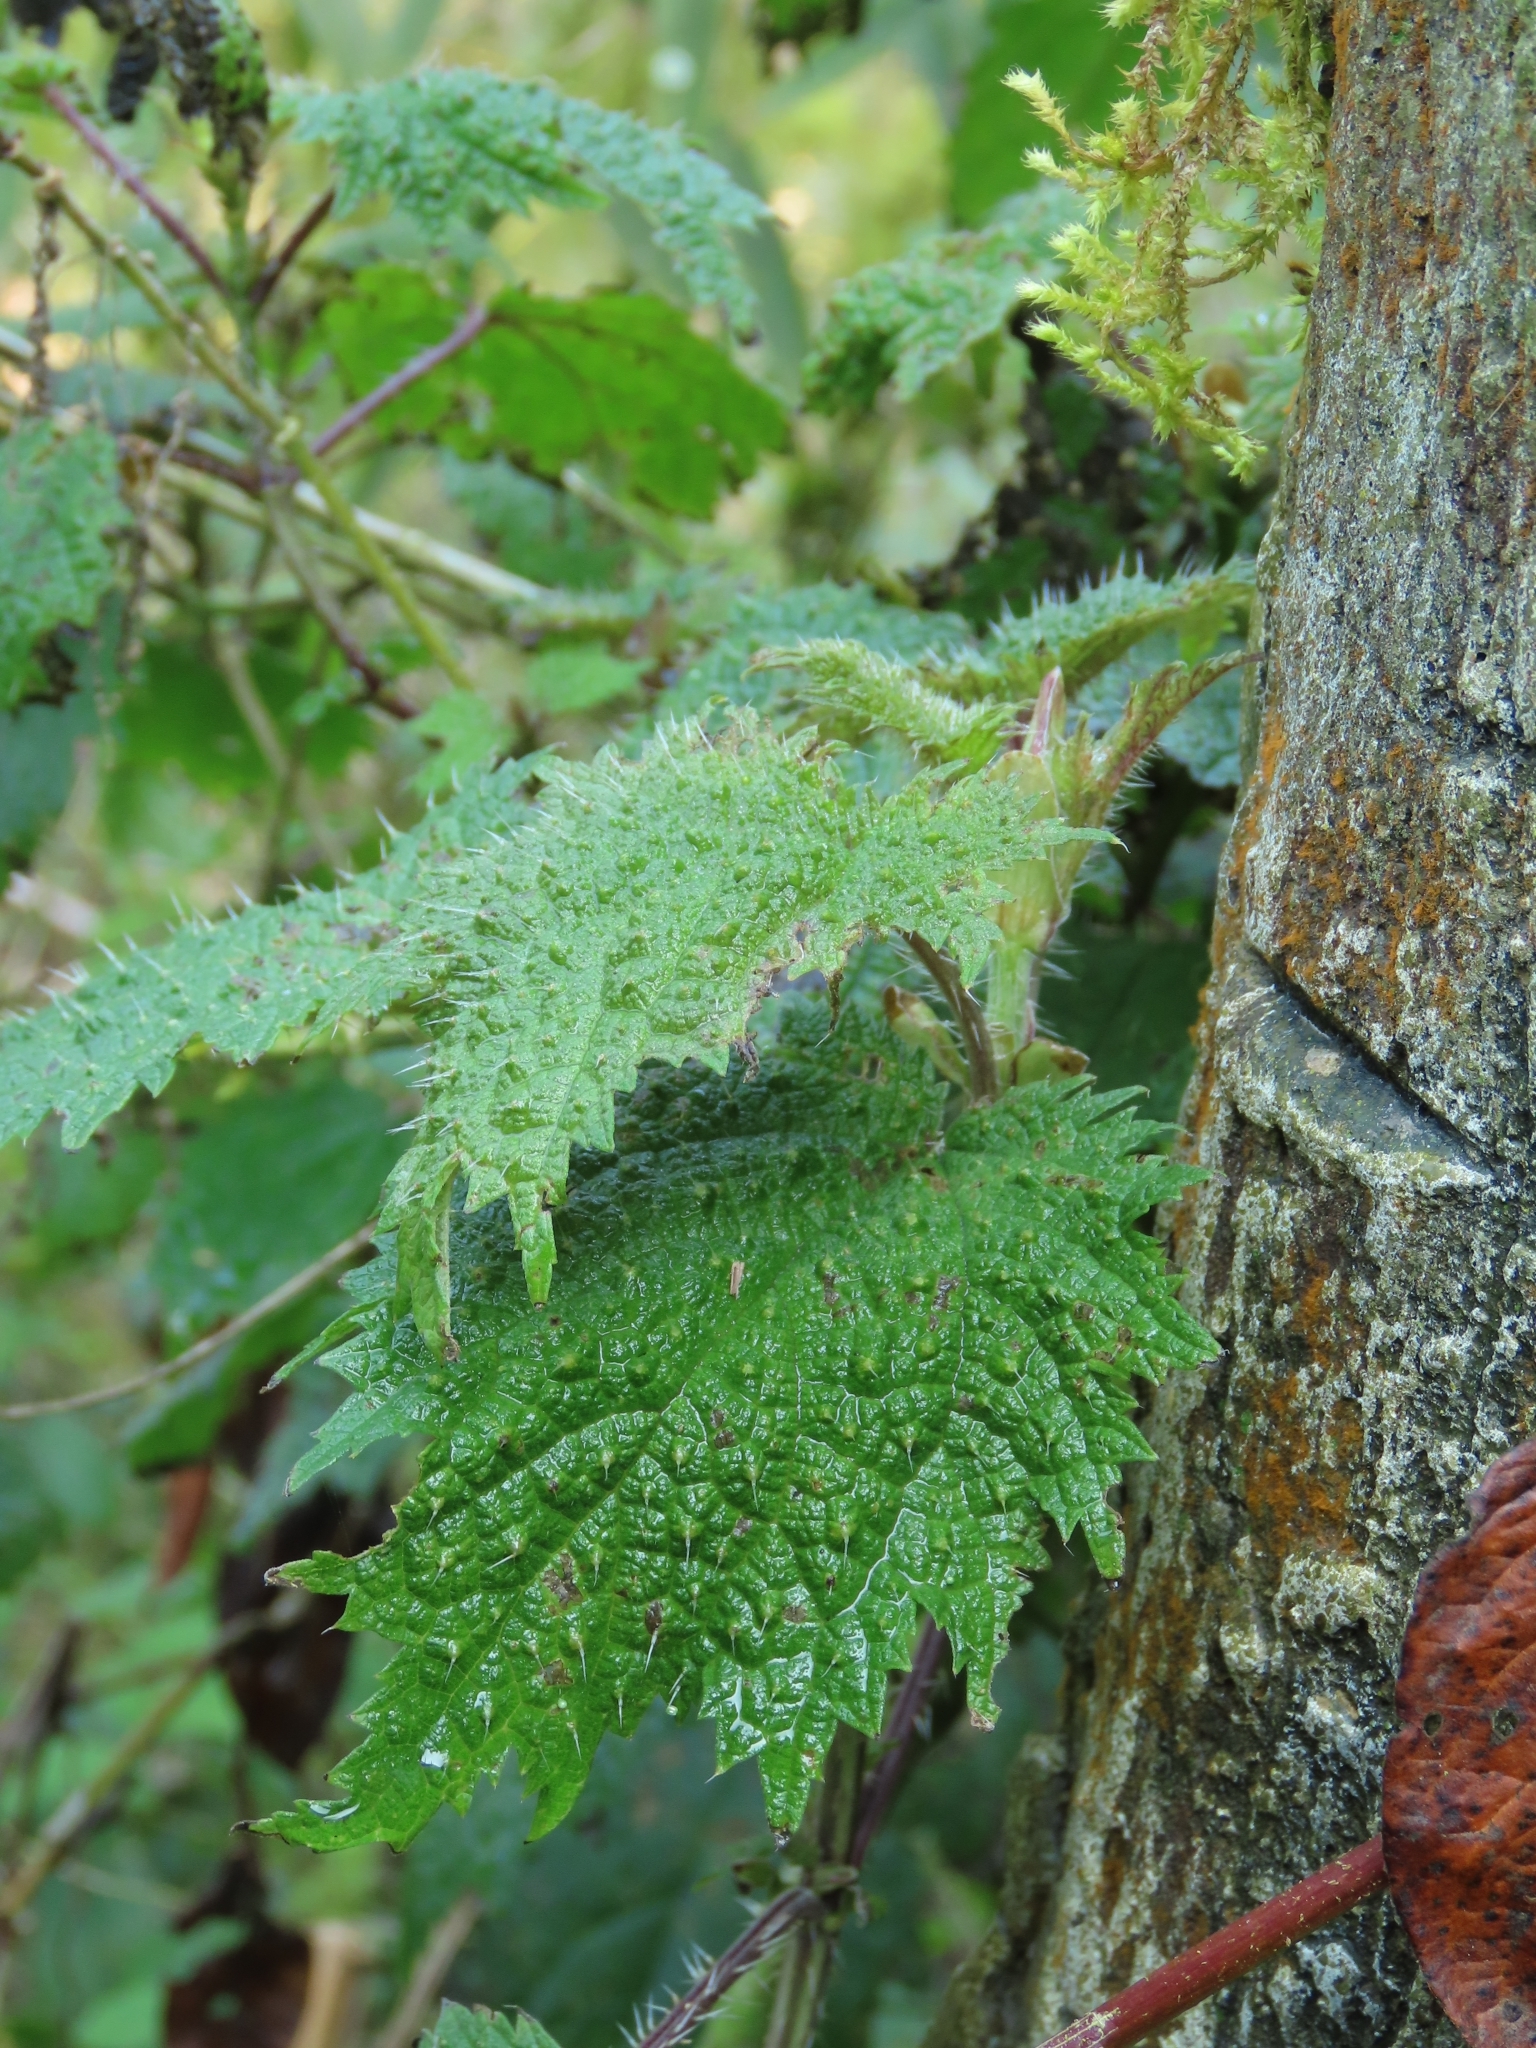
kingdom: Plantae
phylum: Tracheophyta
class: Magnoliopsida
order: Rosales
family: Urticaceae
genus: Urtica
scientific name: Urtica thunbergiana
